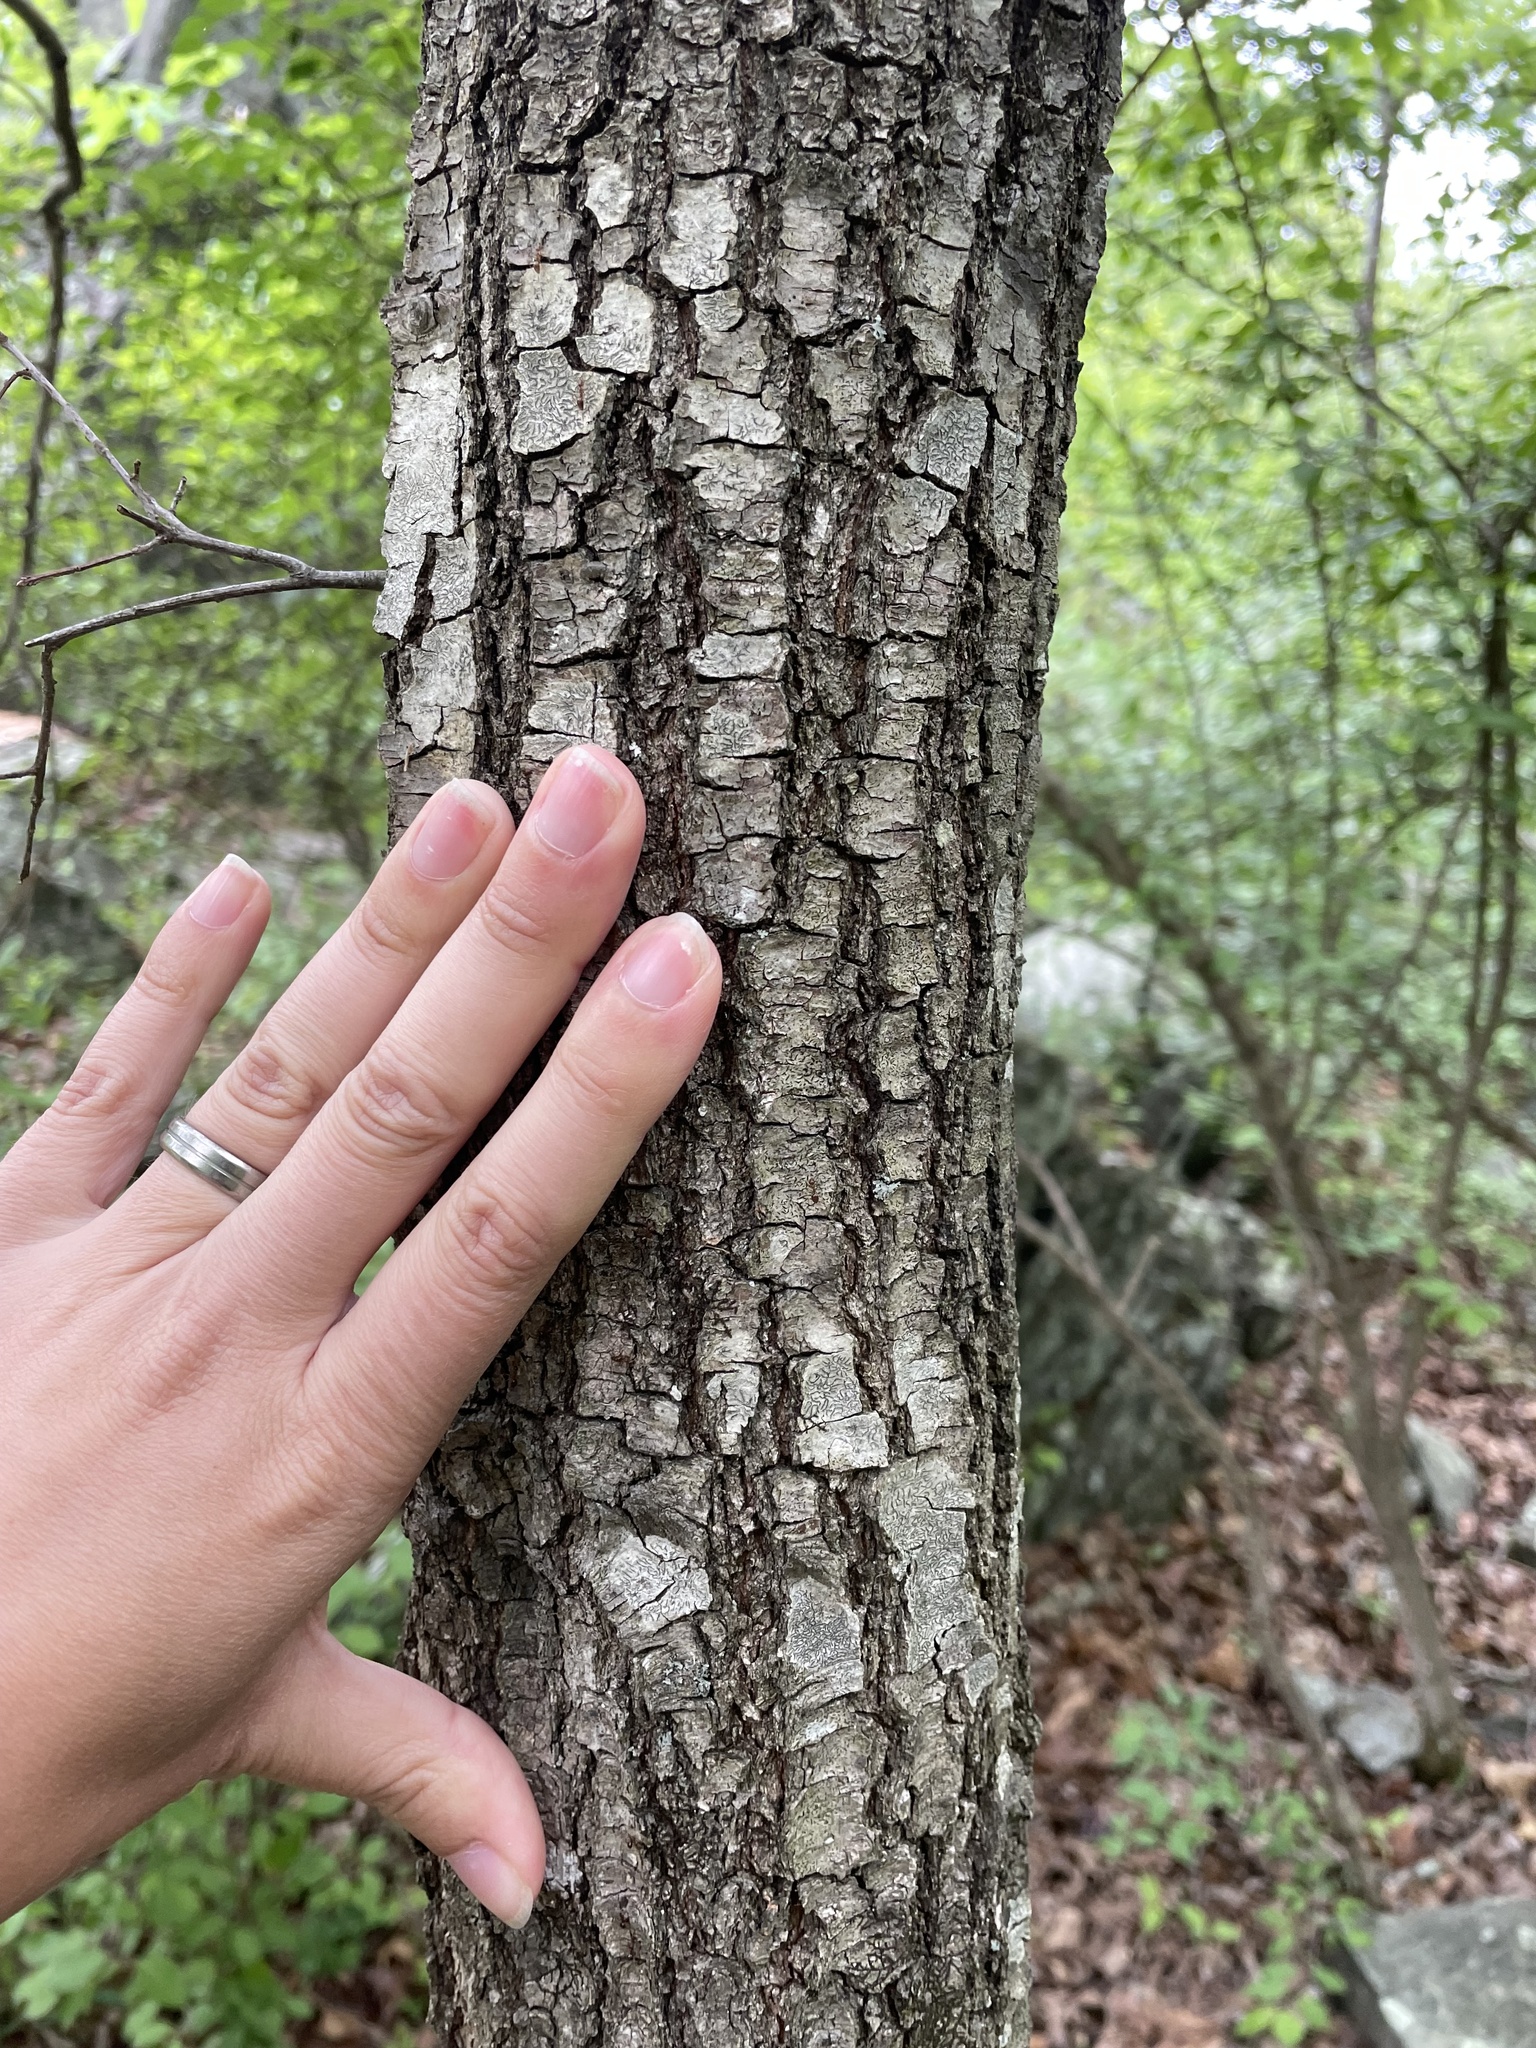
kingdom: Plantae
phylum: Tracheophyta
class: Magnoliopsida
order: Fagales
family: Fagaceae
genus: Quercus
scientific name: Quercus phellos
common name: Willow oak
